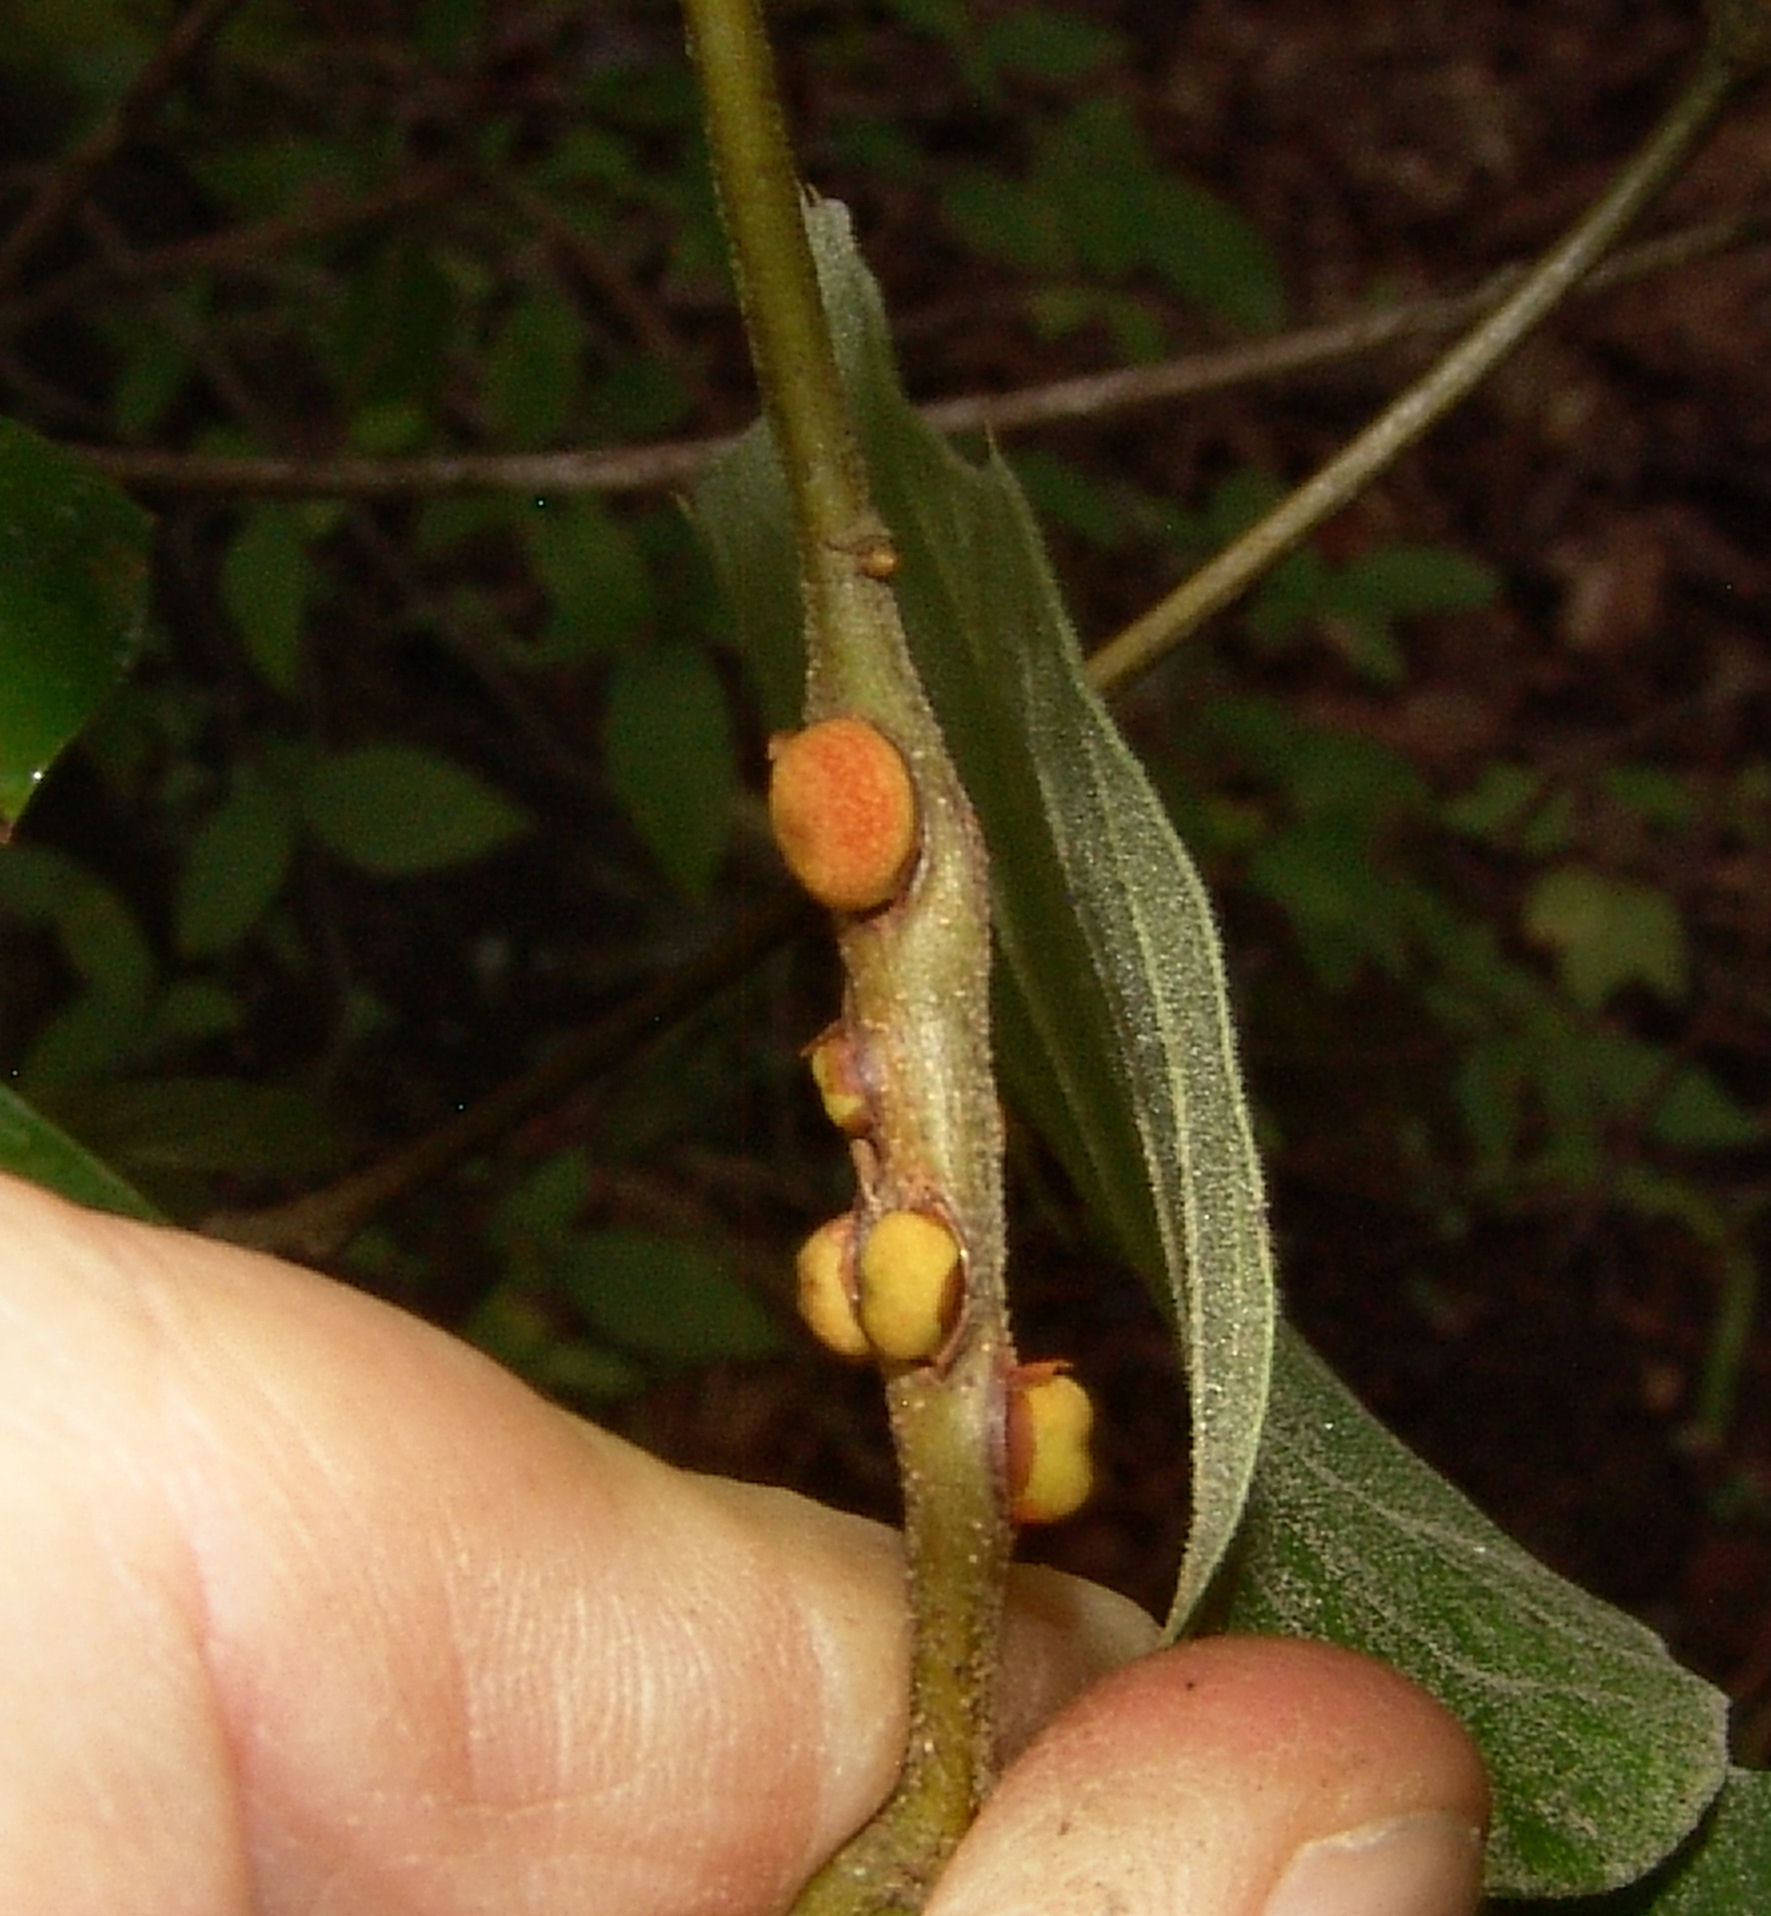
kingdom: Animalia
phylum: Arthropoda
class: Insecta
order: Hymenoptera
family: Cynipidae
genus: Kokkocynips
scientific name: Kokkocynips imbricariae
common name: Banded bullet gall wasp
